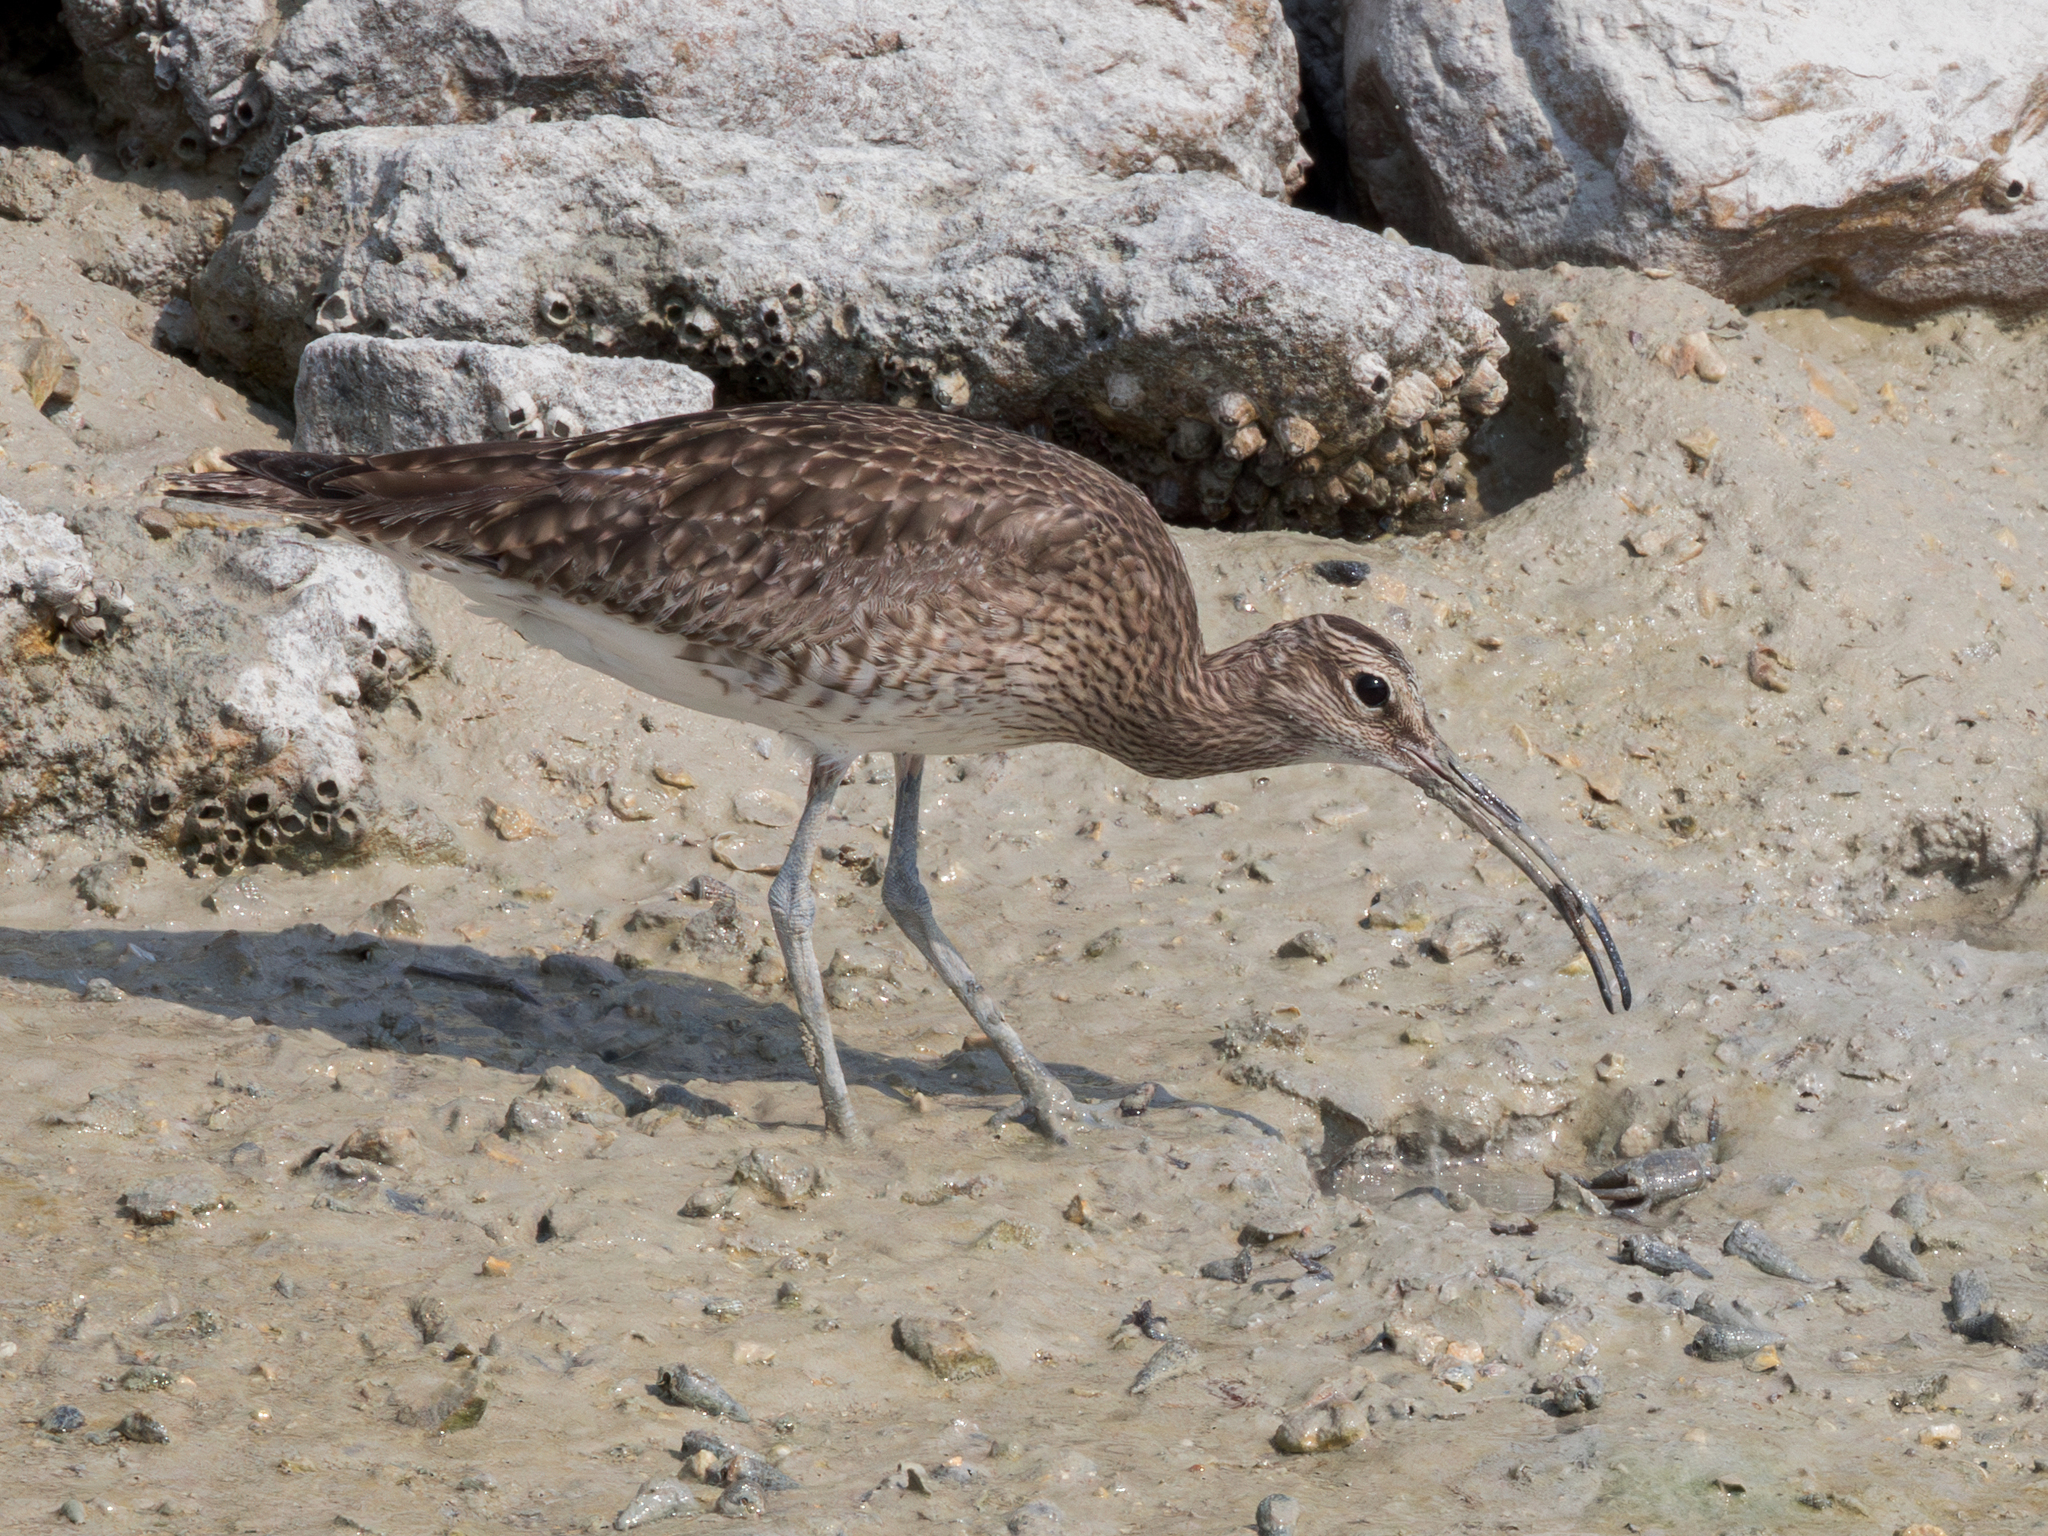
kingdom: Animalia
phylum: Chordata
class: Aves
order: Charadriiformes
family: Scolopacidae
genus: Numenius
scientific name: Numenius phaeopus
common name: Whimbrel
